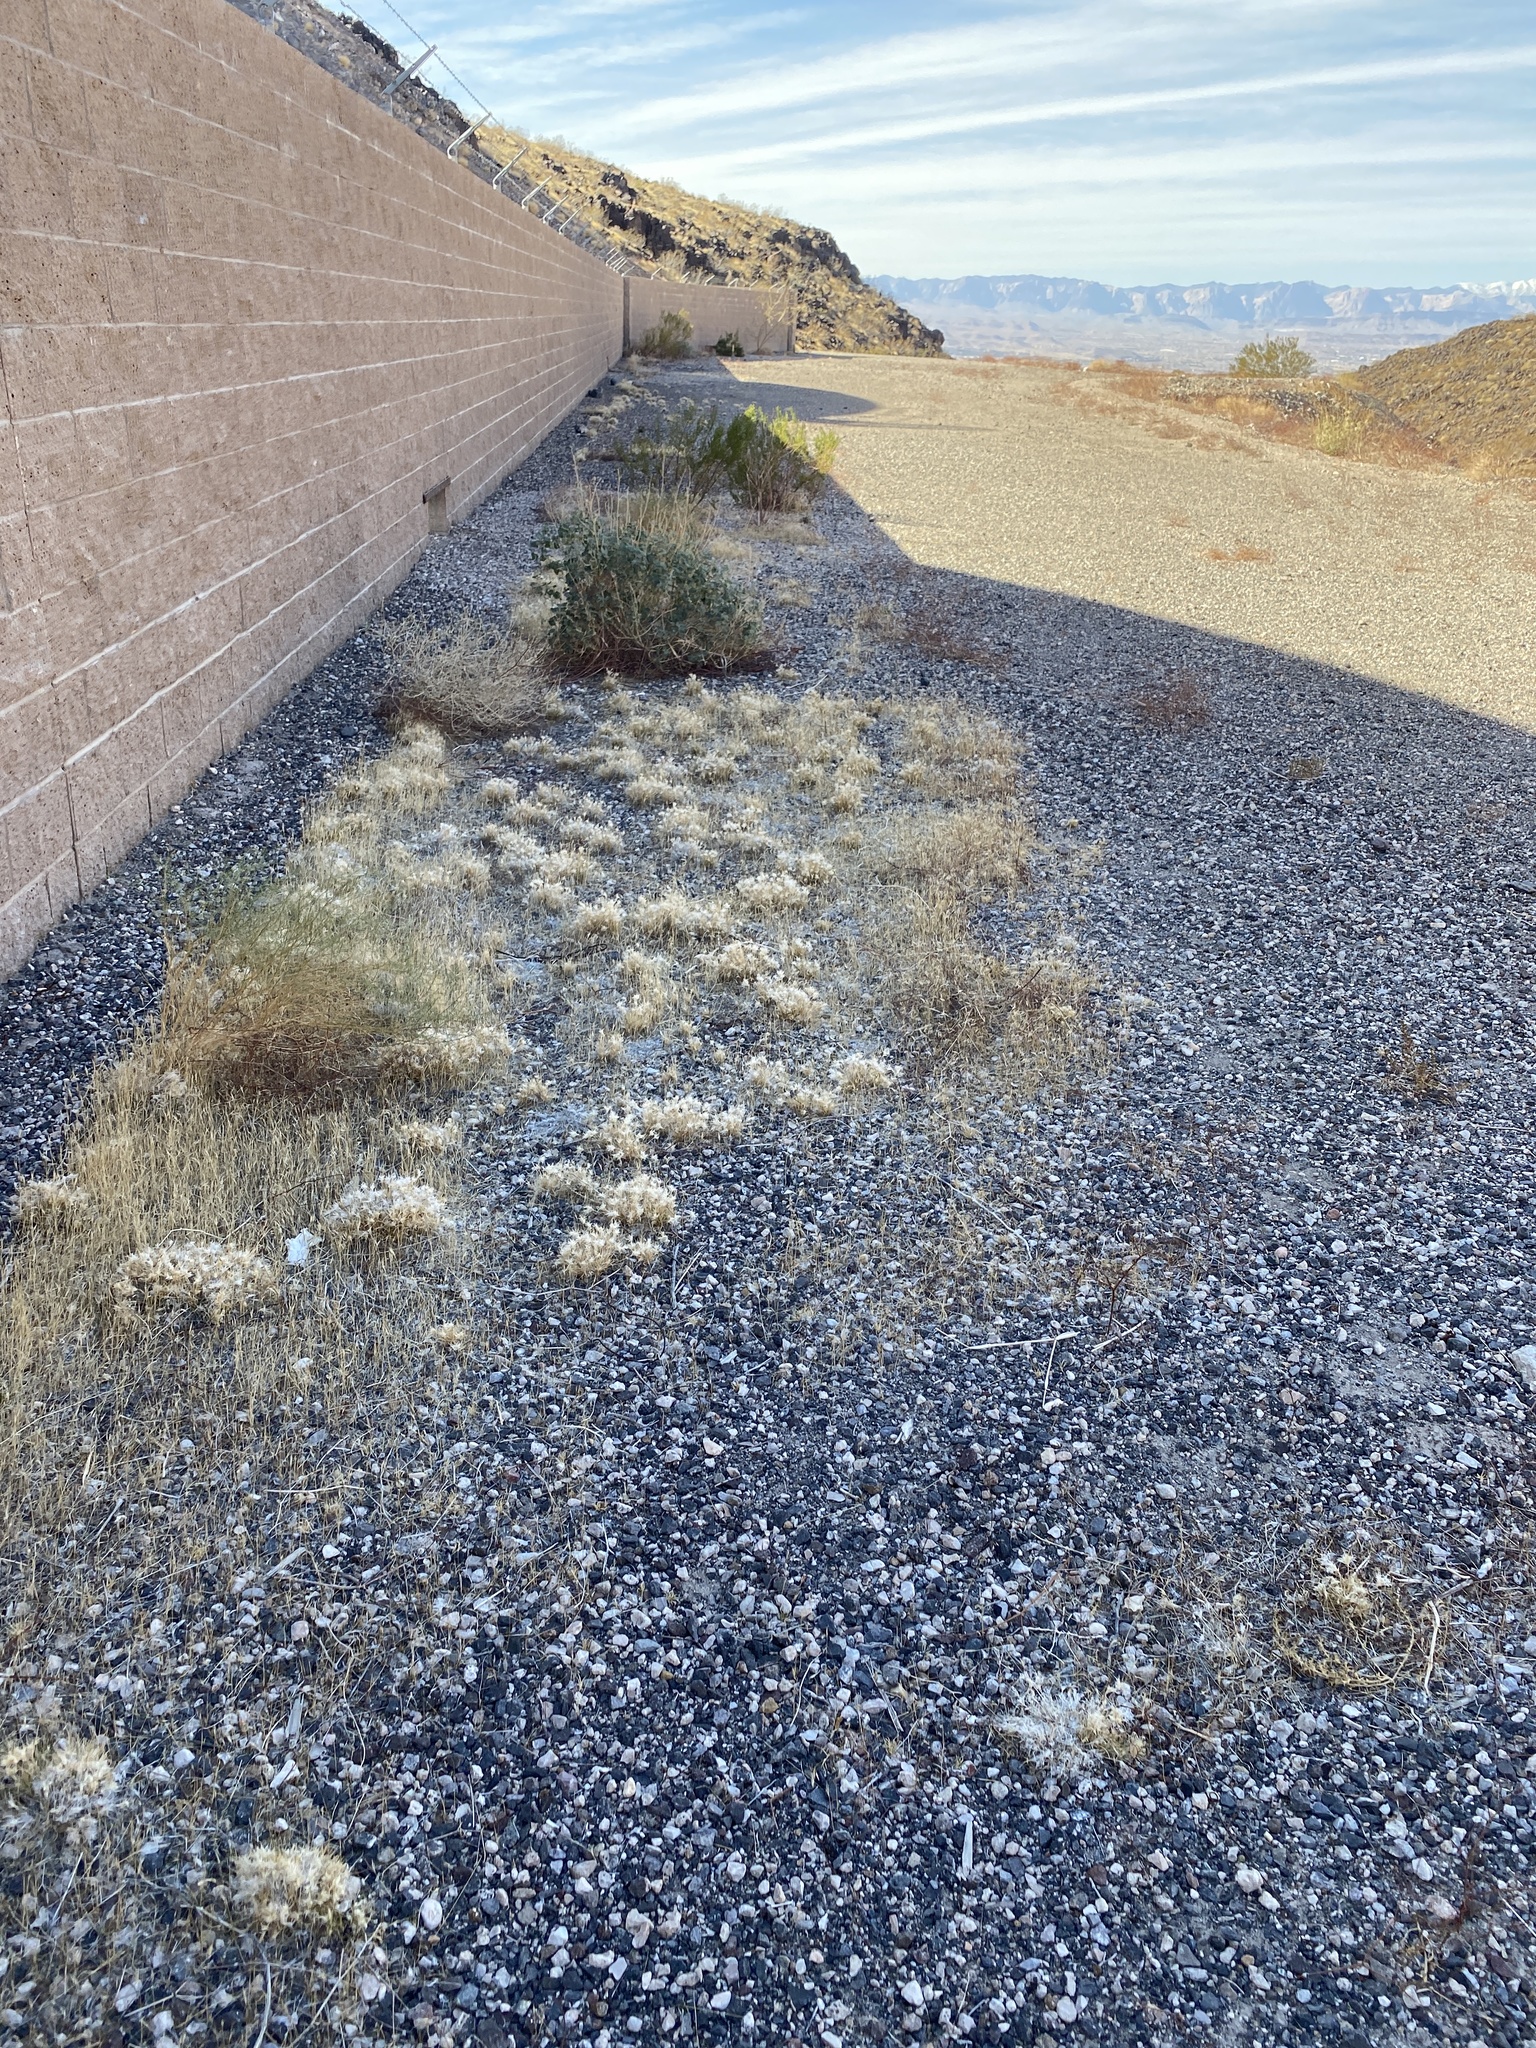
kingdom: Plantae
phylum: Tracheophyta
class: Liliopsida
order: Poales
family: Poaceae
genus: Dasyochloa
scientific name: Dasyochloa pulchella
